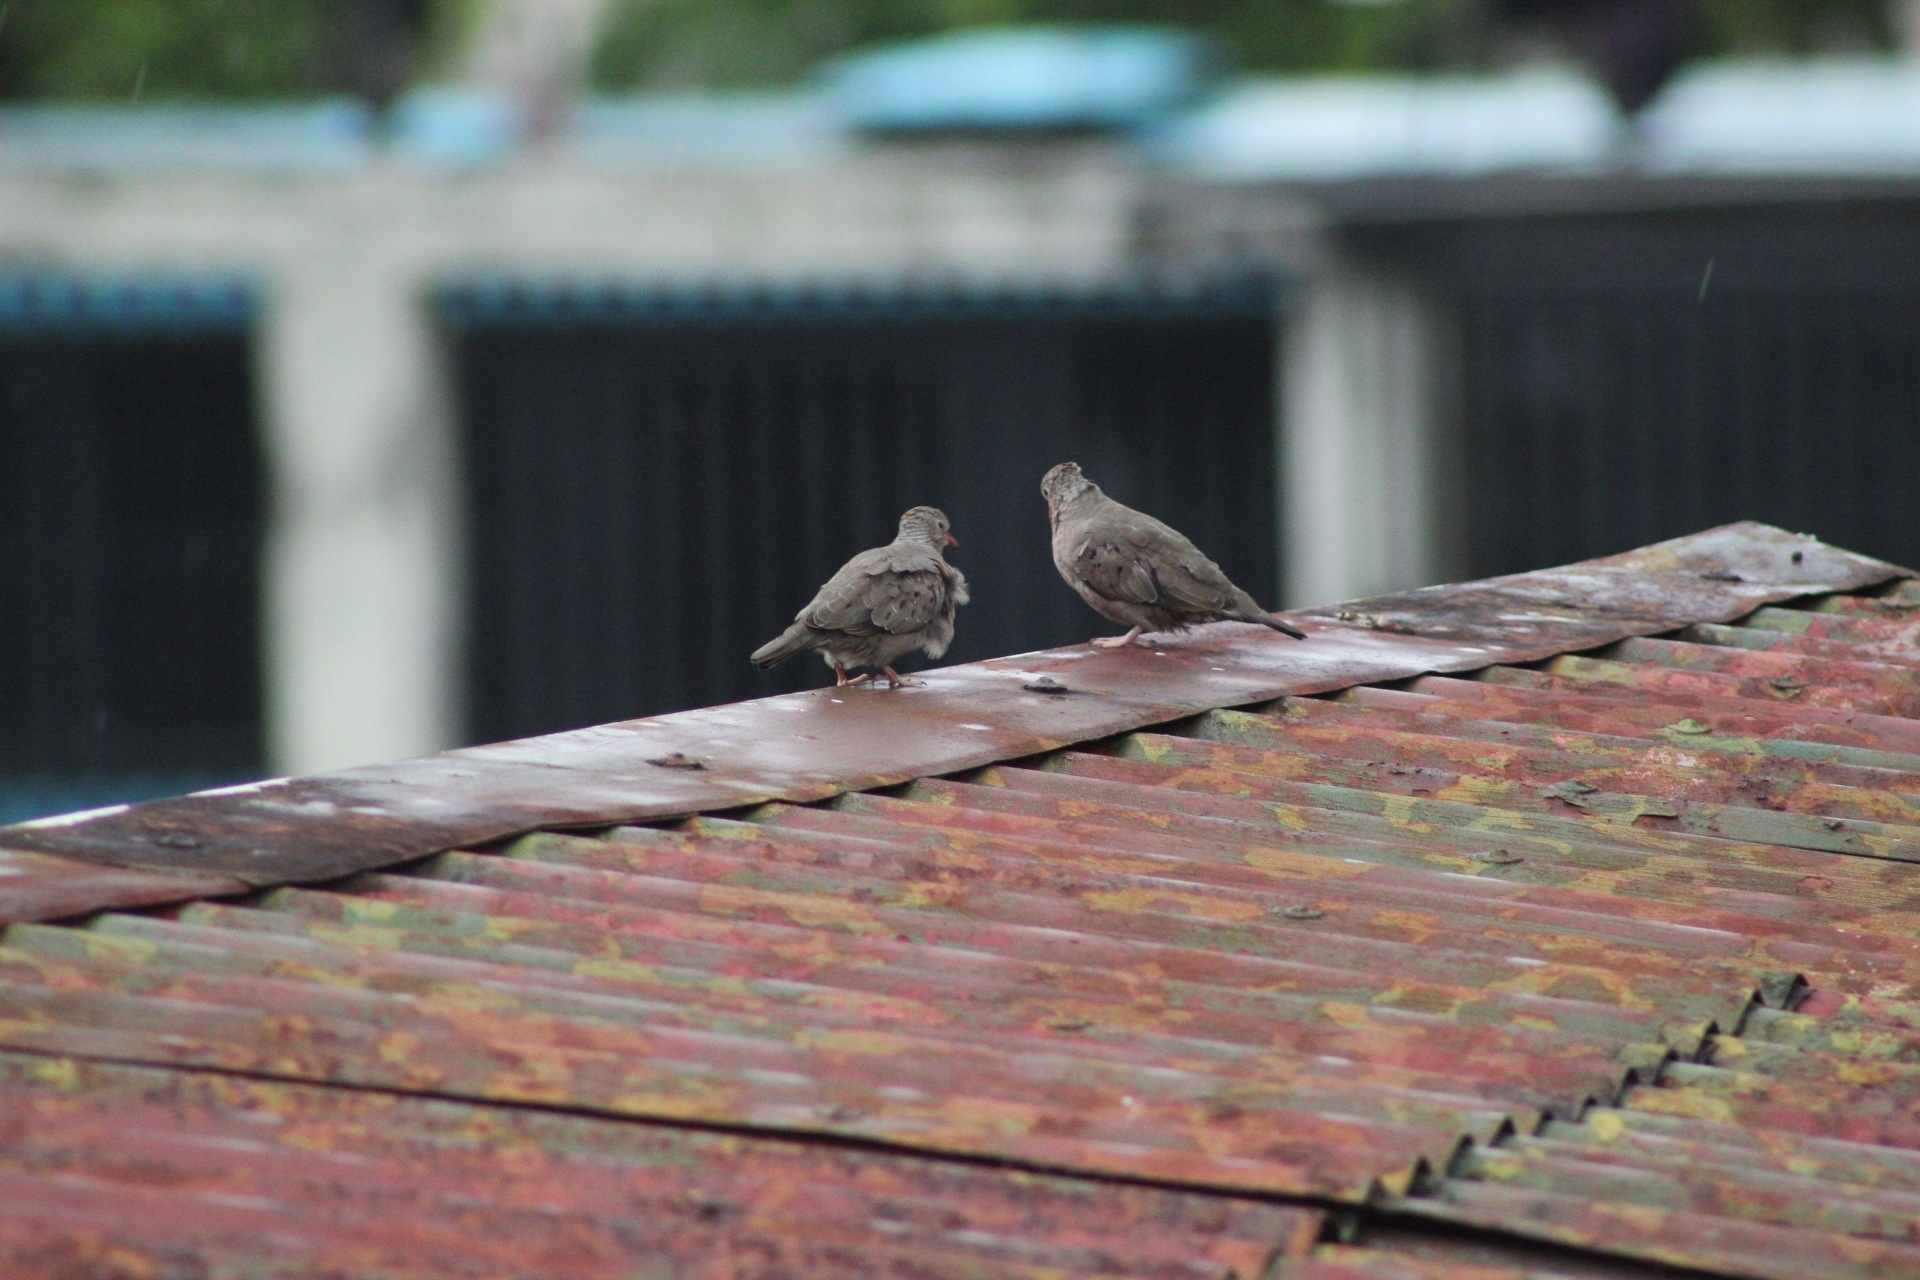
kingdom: Animalia
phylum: Chordata
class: Aves
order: Columbiformes
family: Columbidae
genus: Columbina
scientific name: Columbina passerina
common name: Common ground-dove
